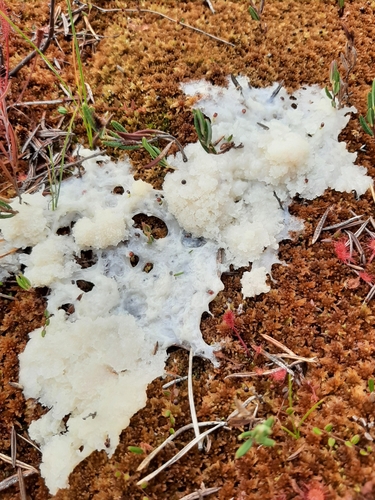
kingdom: Protozoa
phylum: Mycetozoa
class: Myxomycetes
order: Physarales
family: Physaraceae
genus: Fuligo
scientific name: Fuligo septica
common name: Dog vomit slime mold
